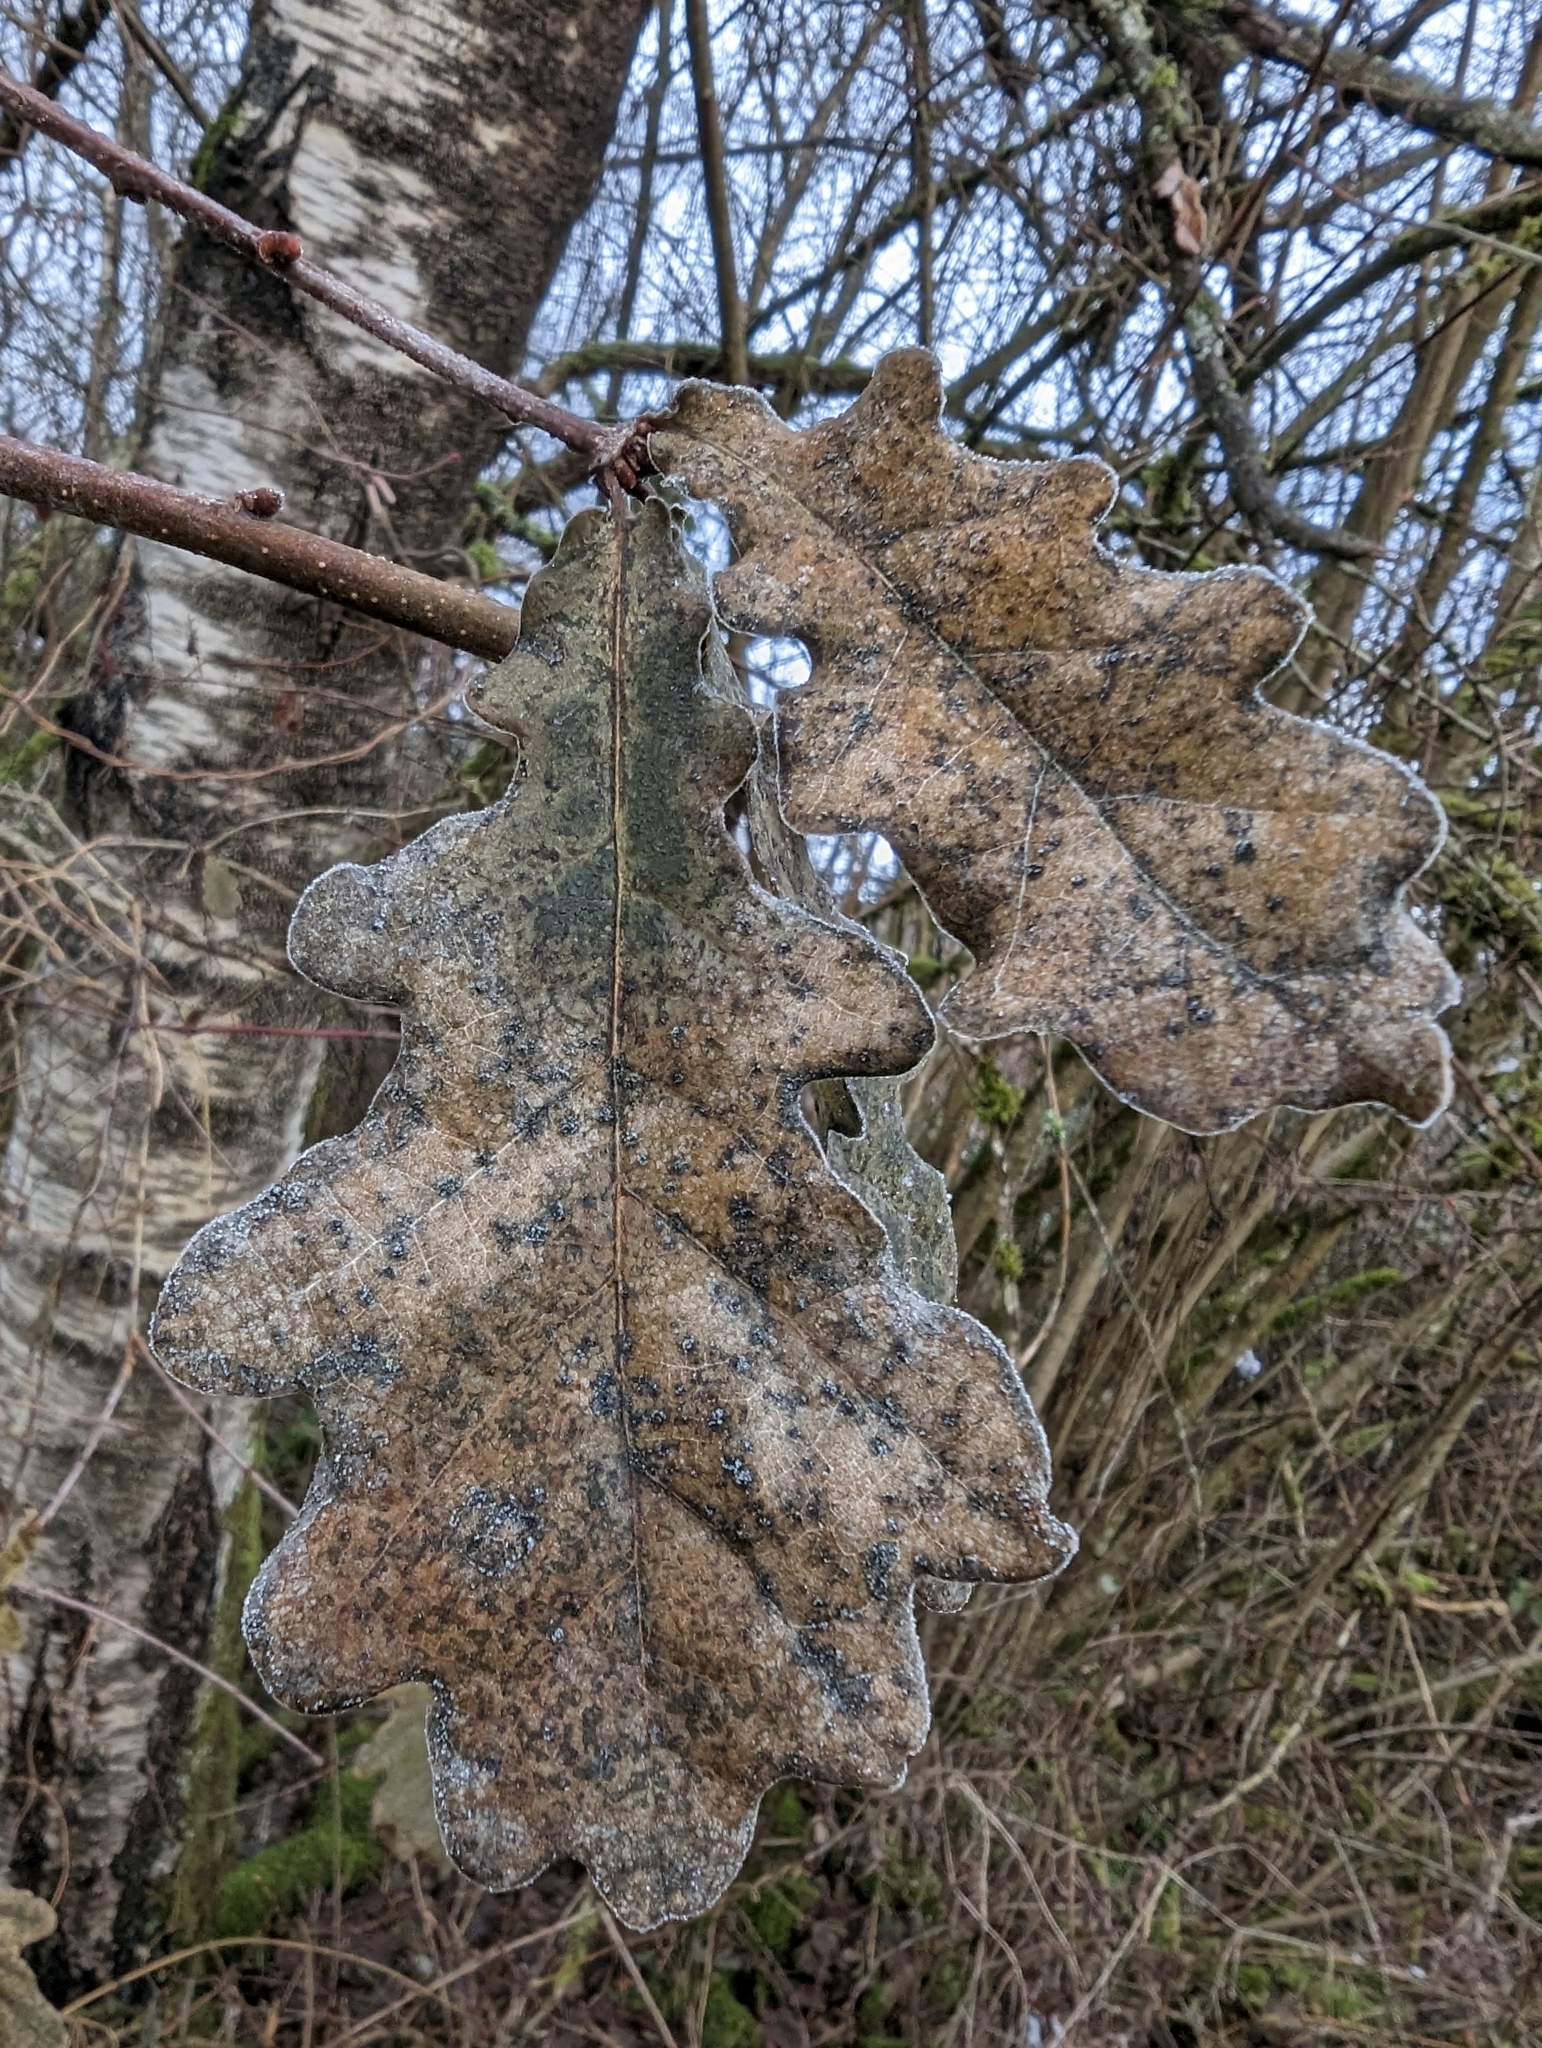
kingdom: Plantae
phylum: Tracheophyta
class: Magnoliopsida
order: Fagales
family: Fagaceae
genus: Quercus
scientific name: Quercus robur
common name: Pedunculate oak
